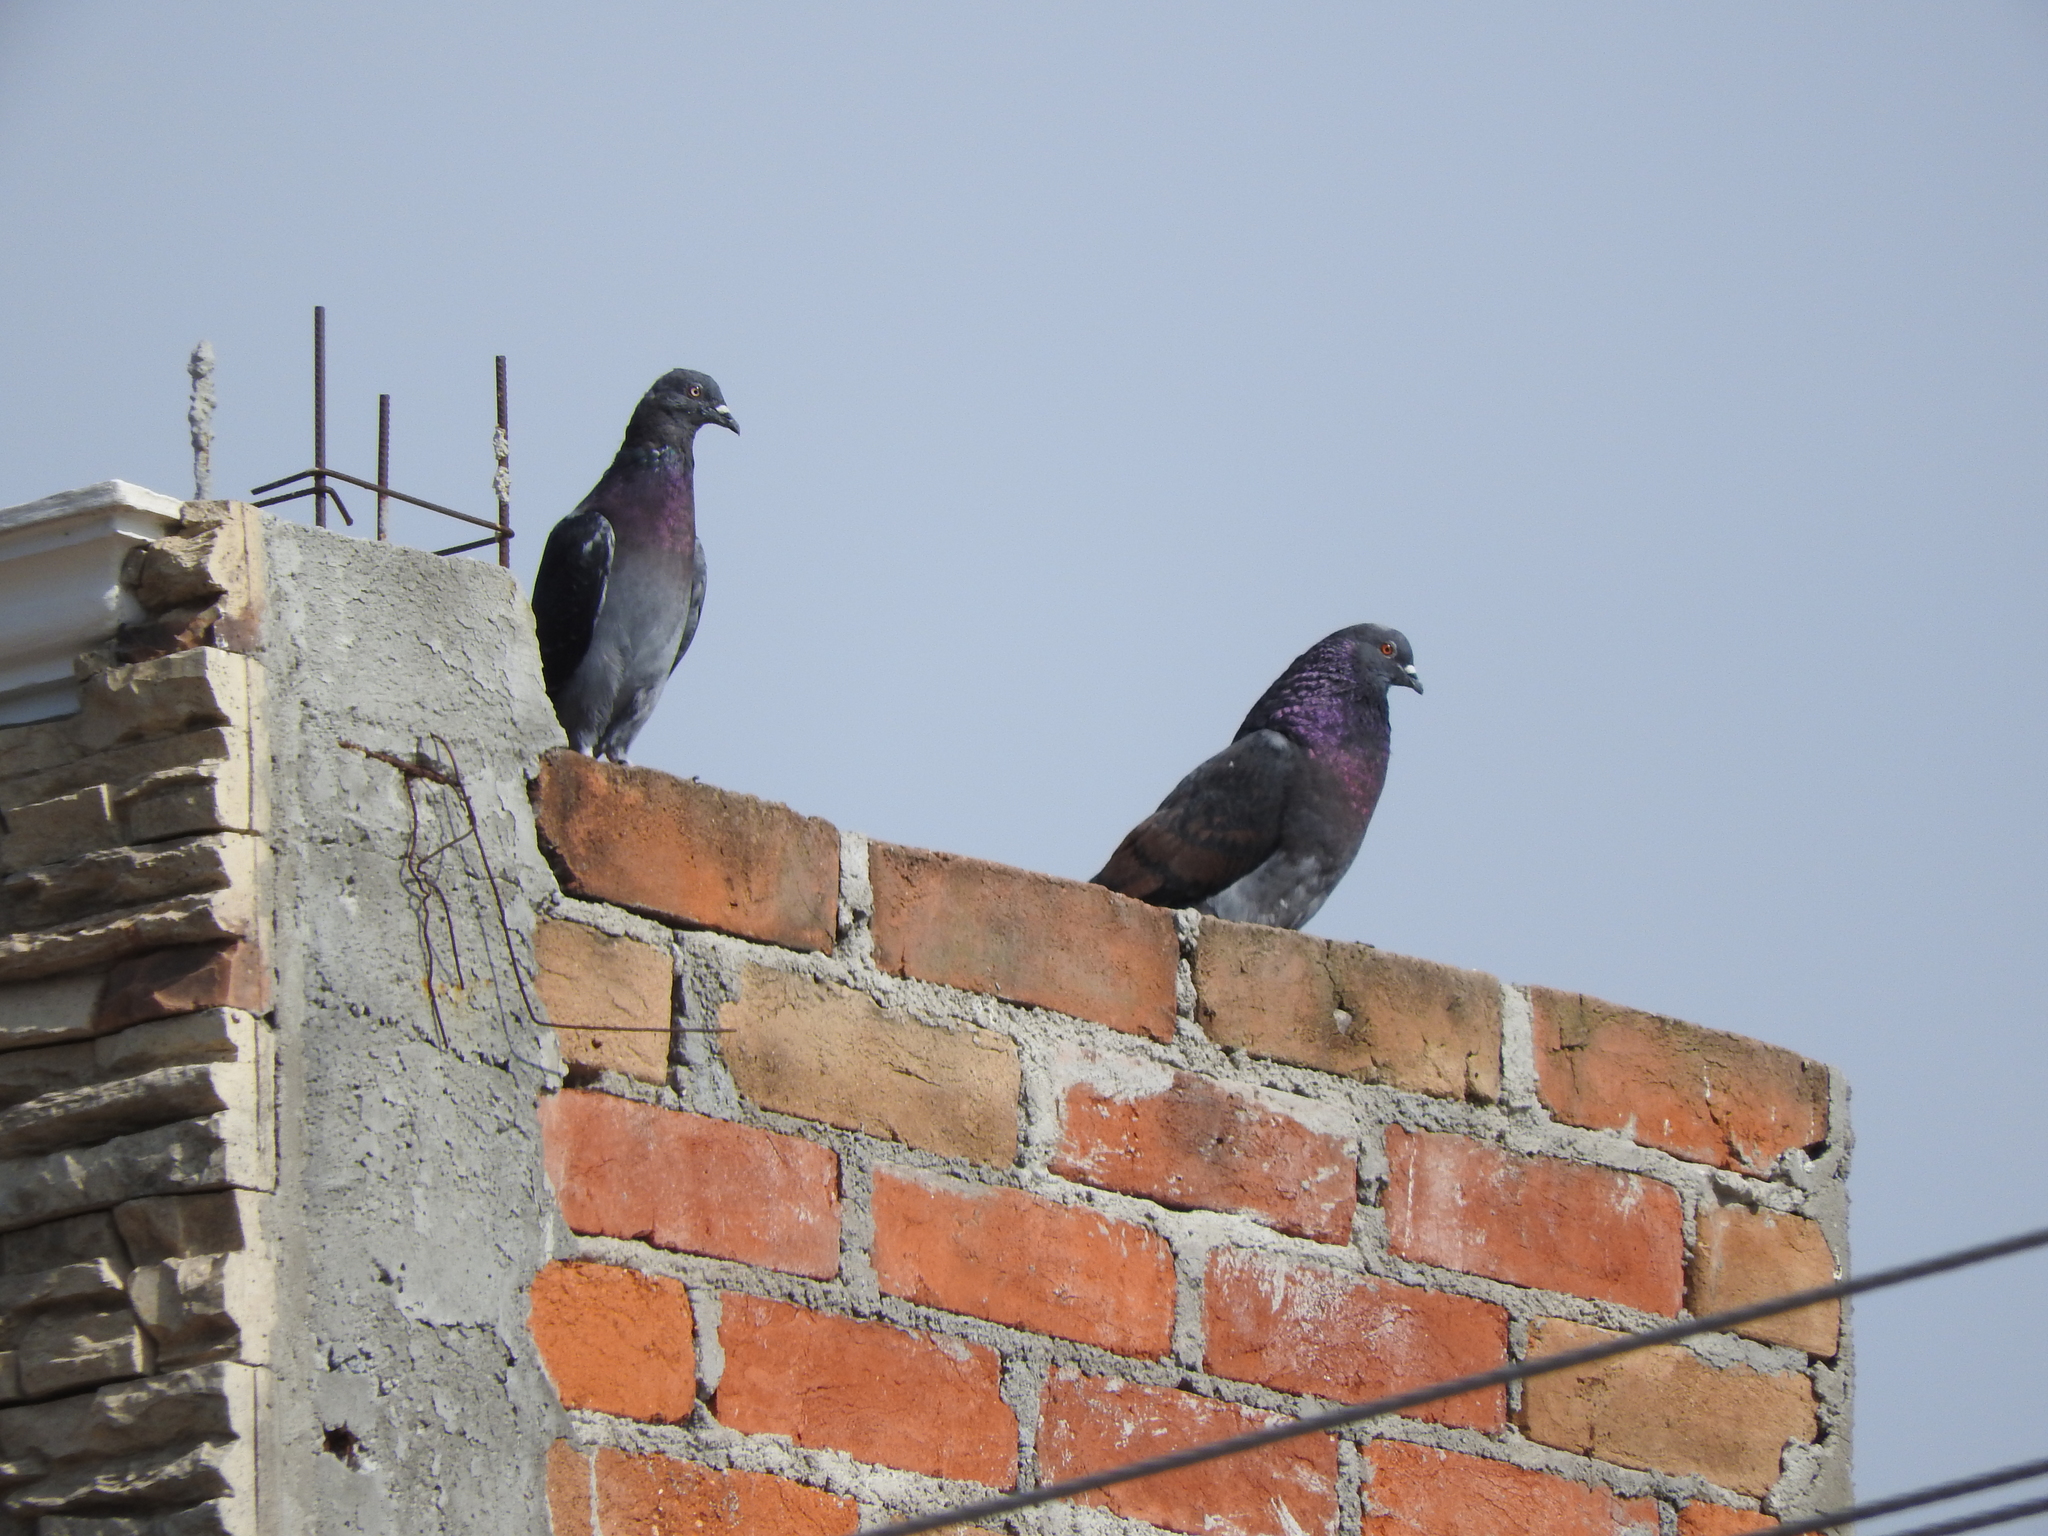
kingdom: Animalia
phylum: Chordata
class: Aves
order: Columbiformes
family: Columbidae
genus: Columba
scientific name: Columba livia
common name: Rock pigeon
